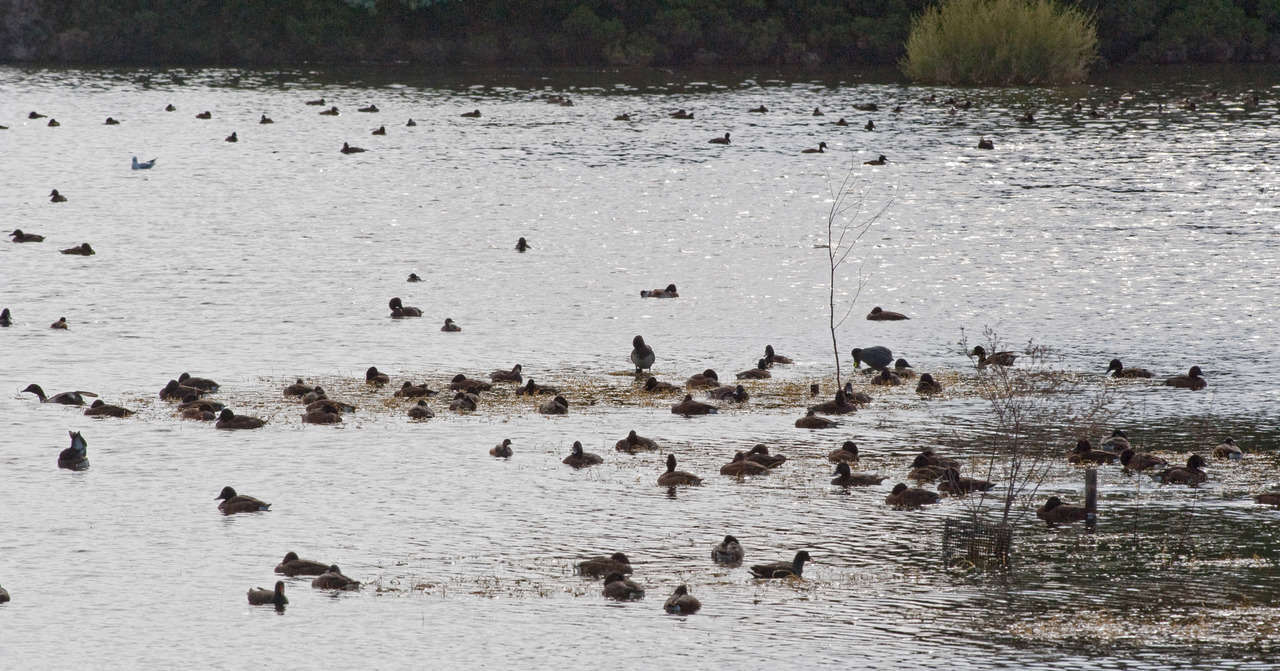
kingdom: Animalia
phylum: Chordata
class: Aves
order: Podicipediformes
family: Podicipedidae
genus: Tachybaptus
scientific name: Tachybaptus novaehollandiae
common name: Australasian grebe
